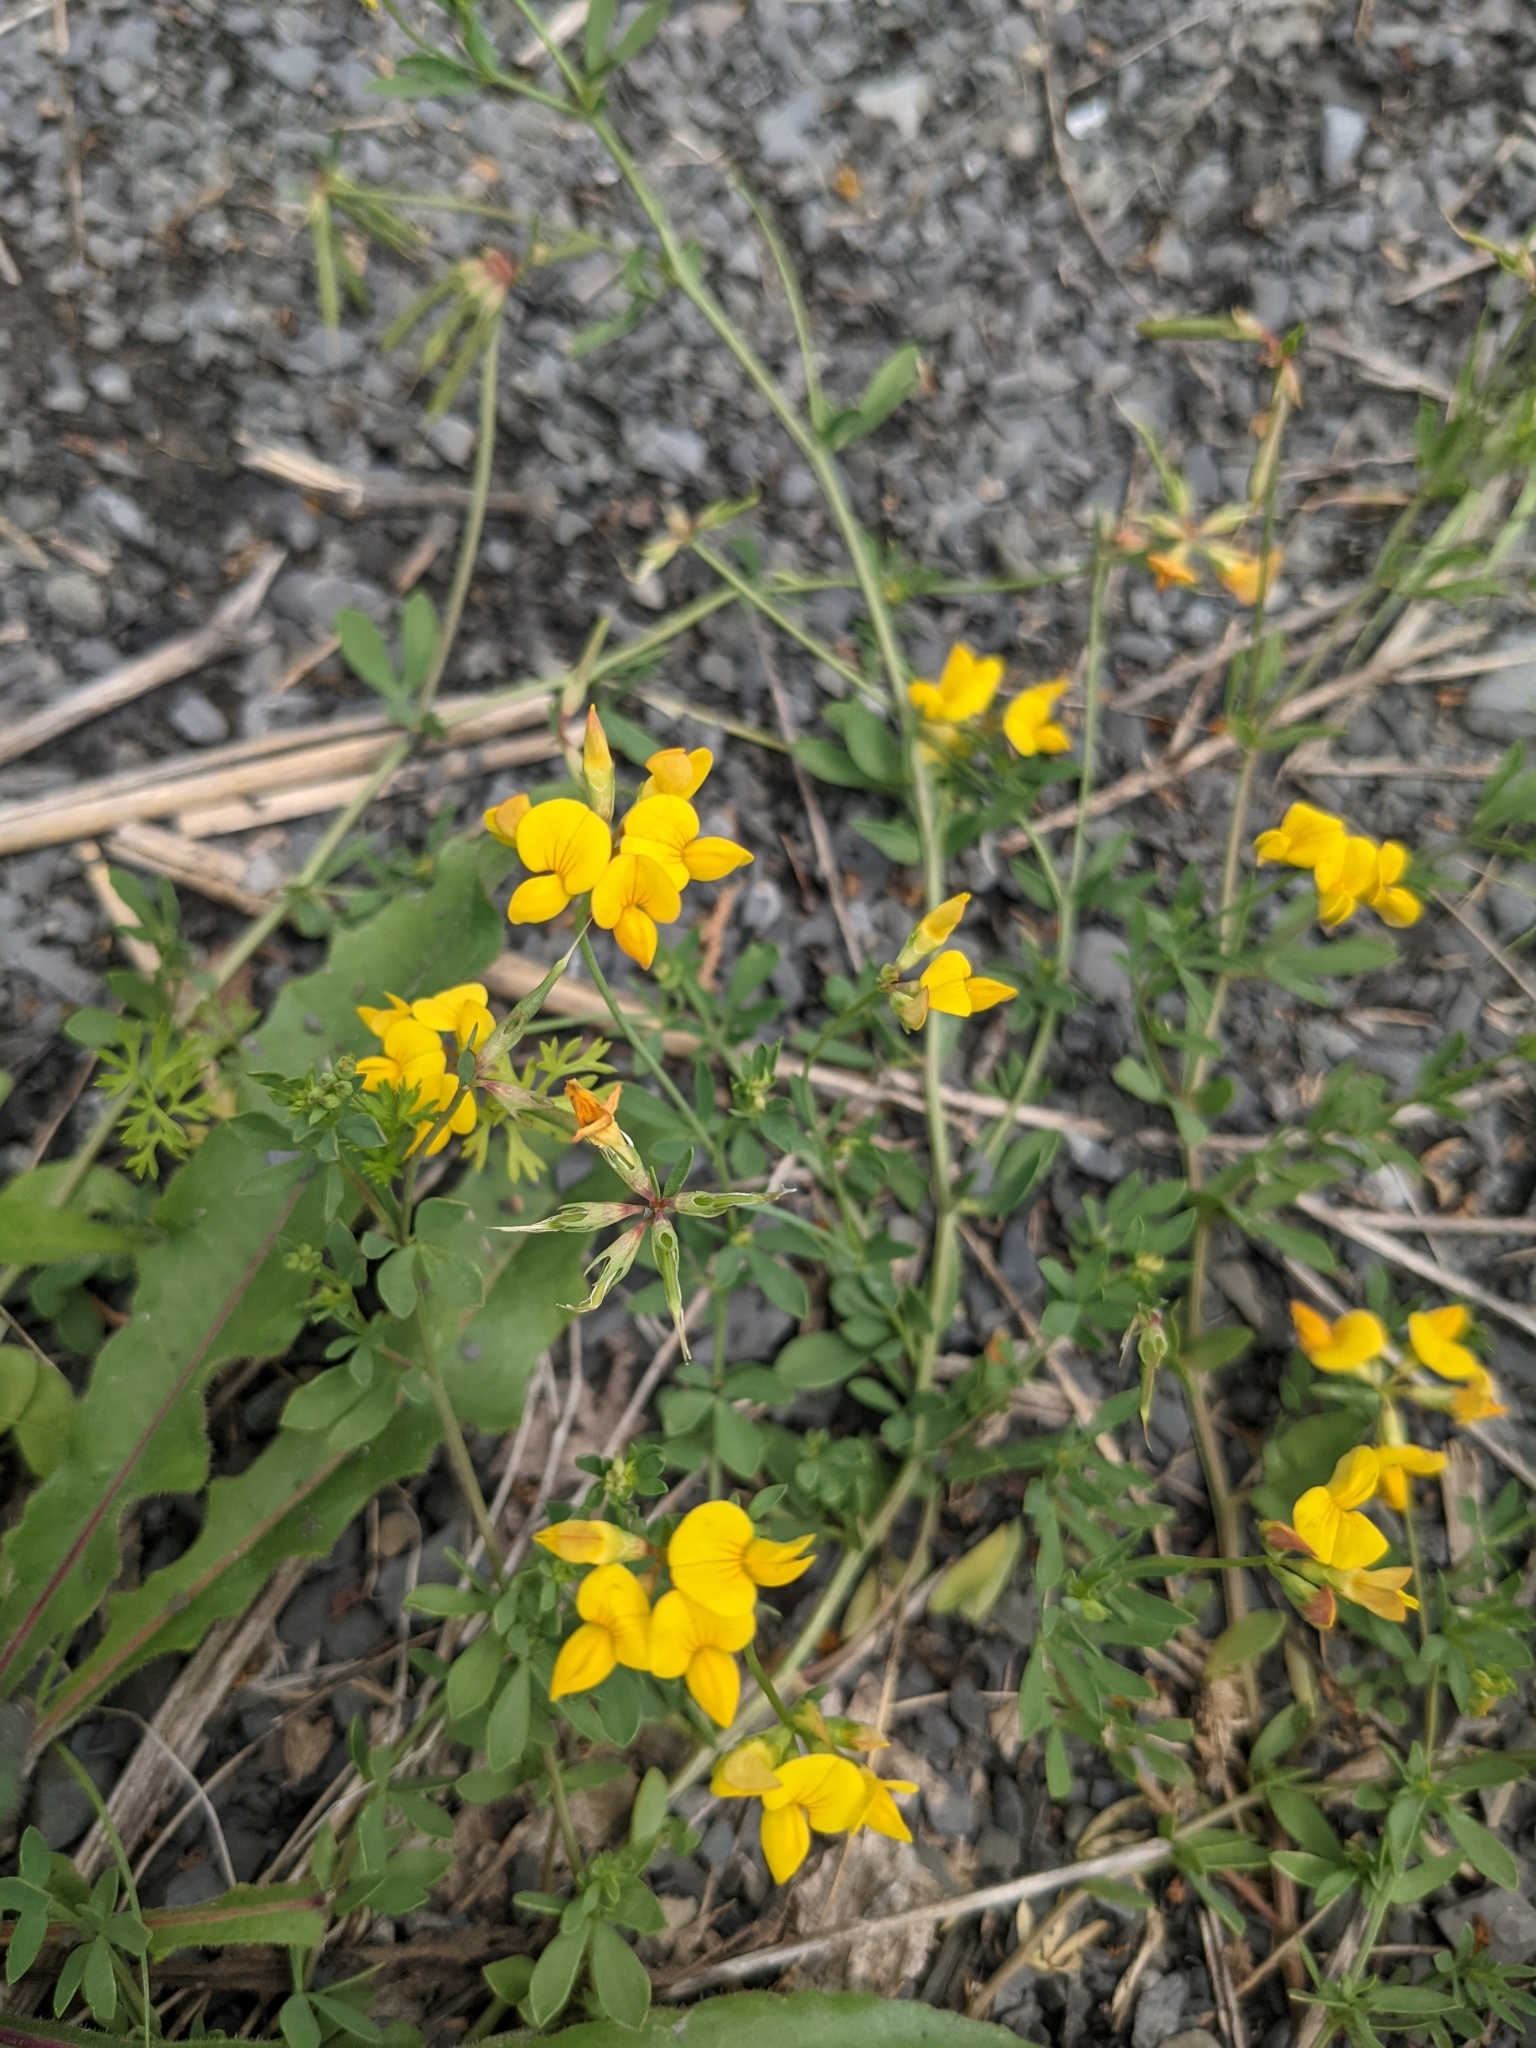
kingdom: Plantae
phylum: Tracheophyta
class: Magnoliopsida
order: Fabales
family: Fabaceae
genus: Lotus
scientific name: Lotus corniculatus
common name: Common bird's-foot-trefoil
